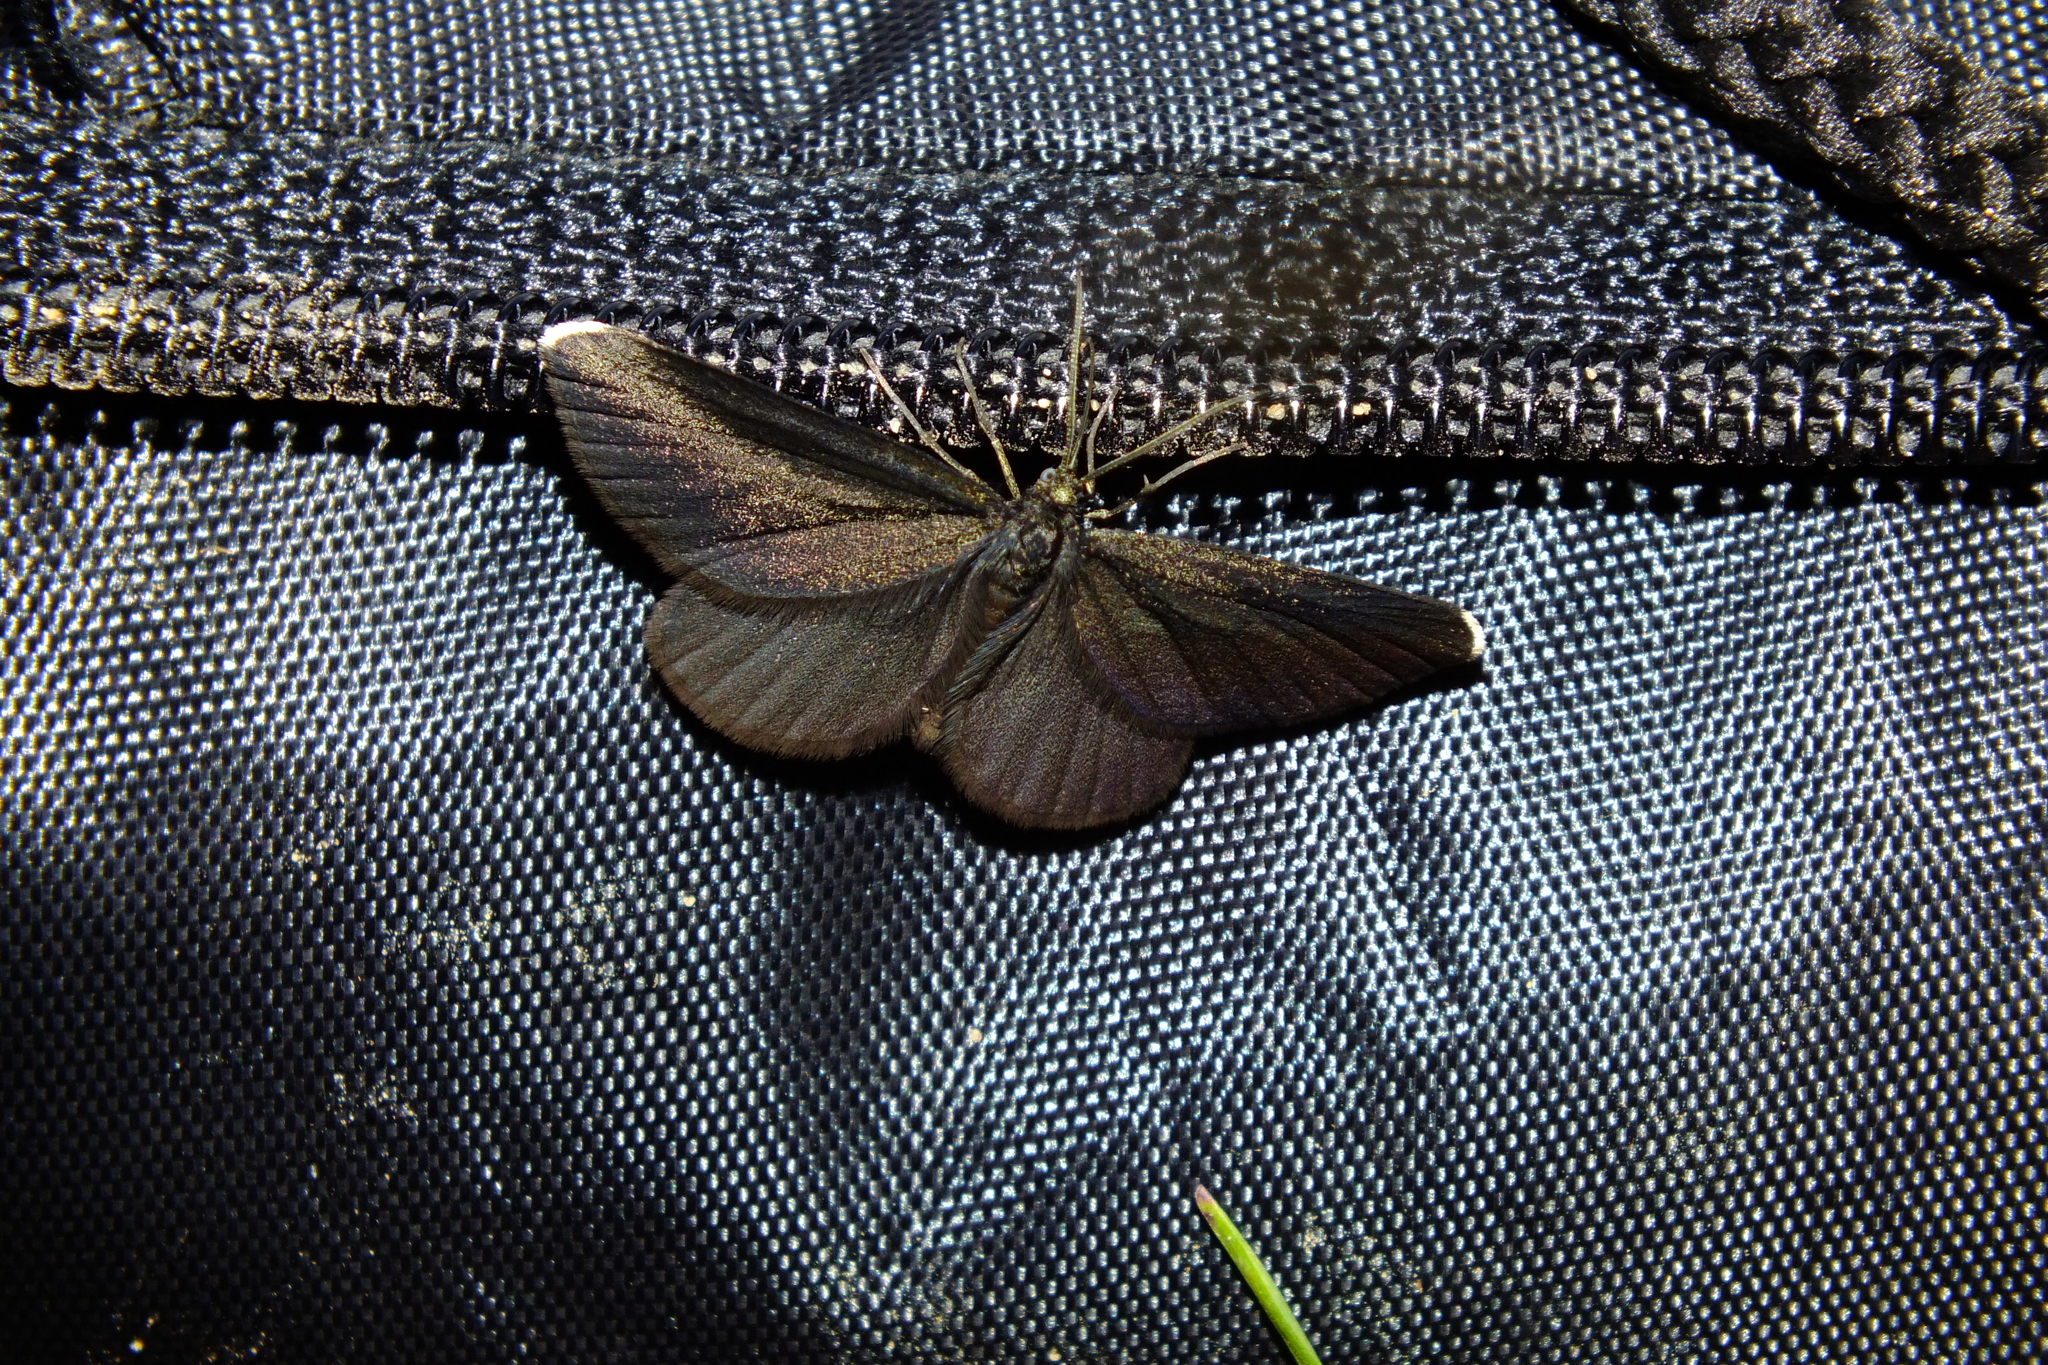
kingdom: Animalia
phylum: Arthropoda
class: Insecta
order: Lepidoptera
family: Geometridae
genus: Odezia
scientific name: Odezia atrata
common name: Chimney sweeper
